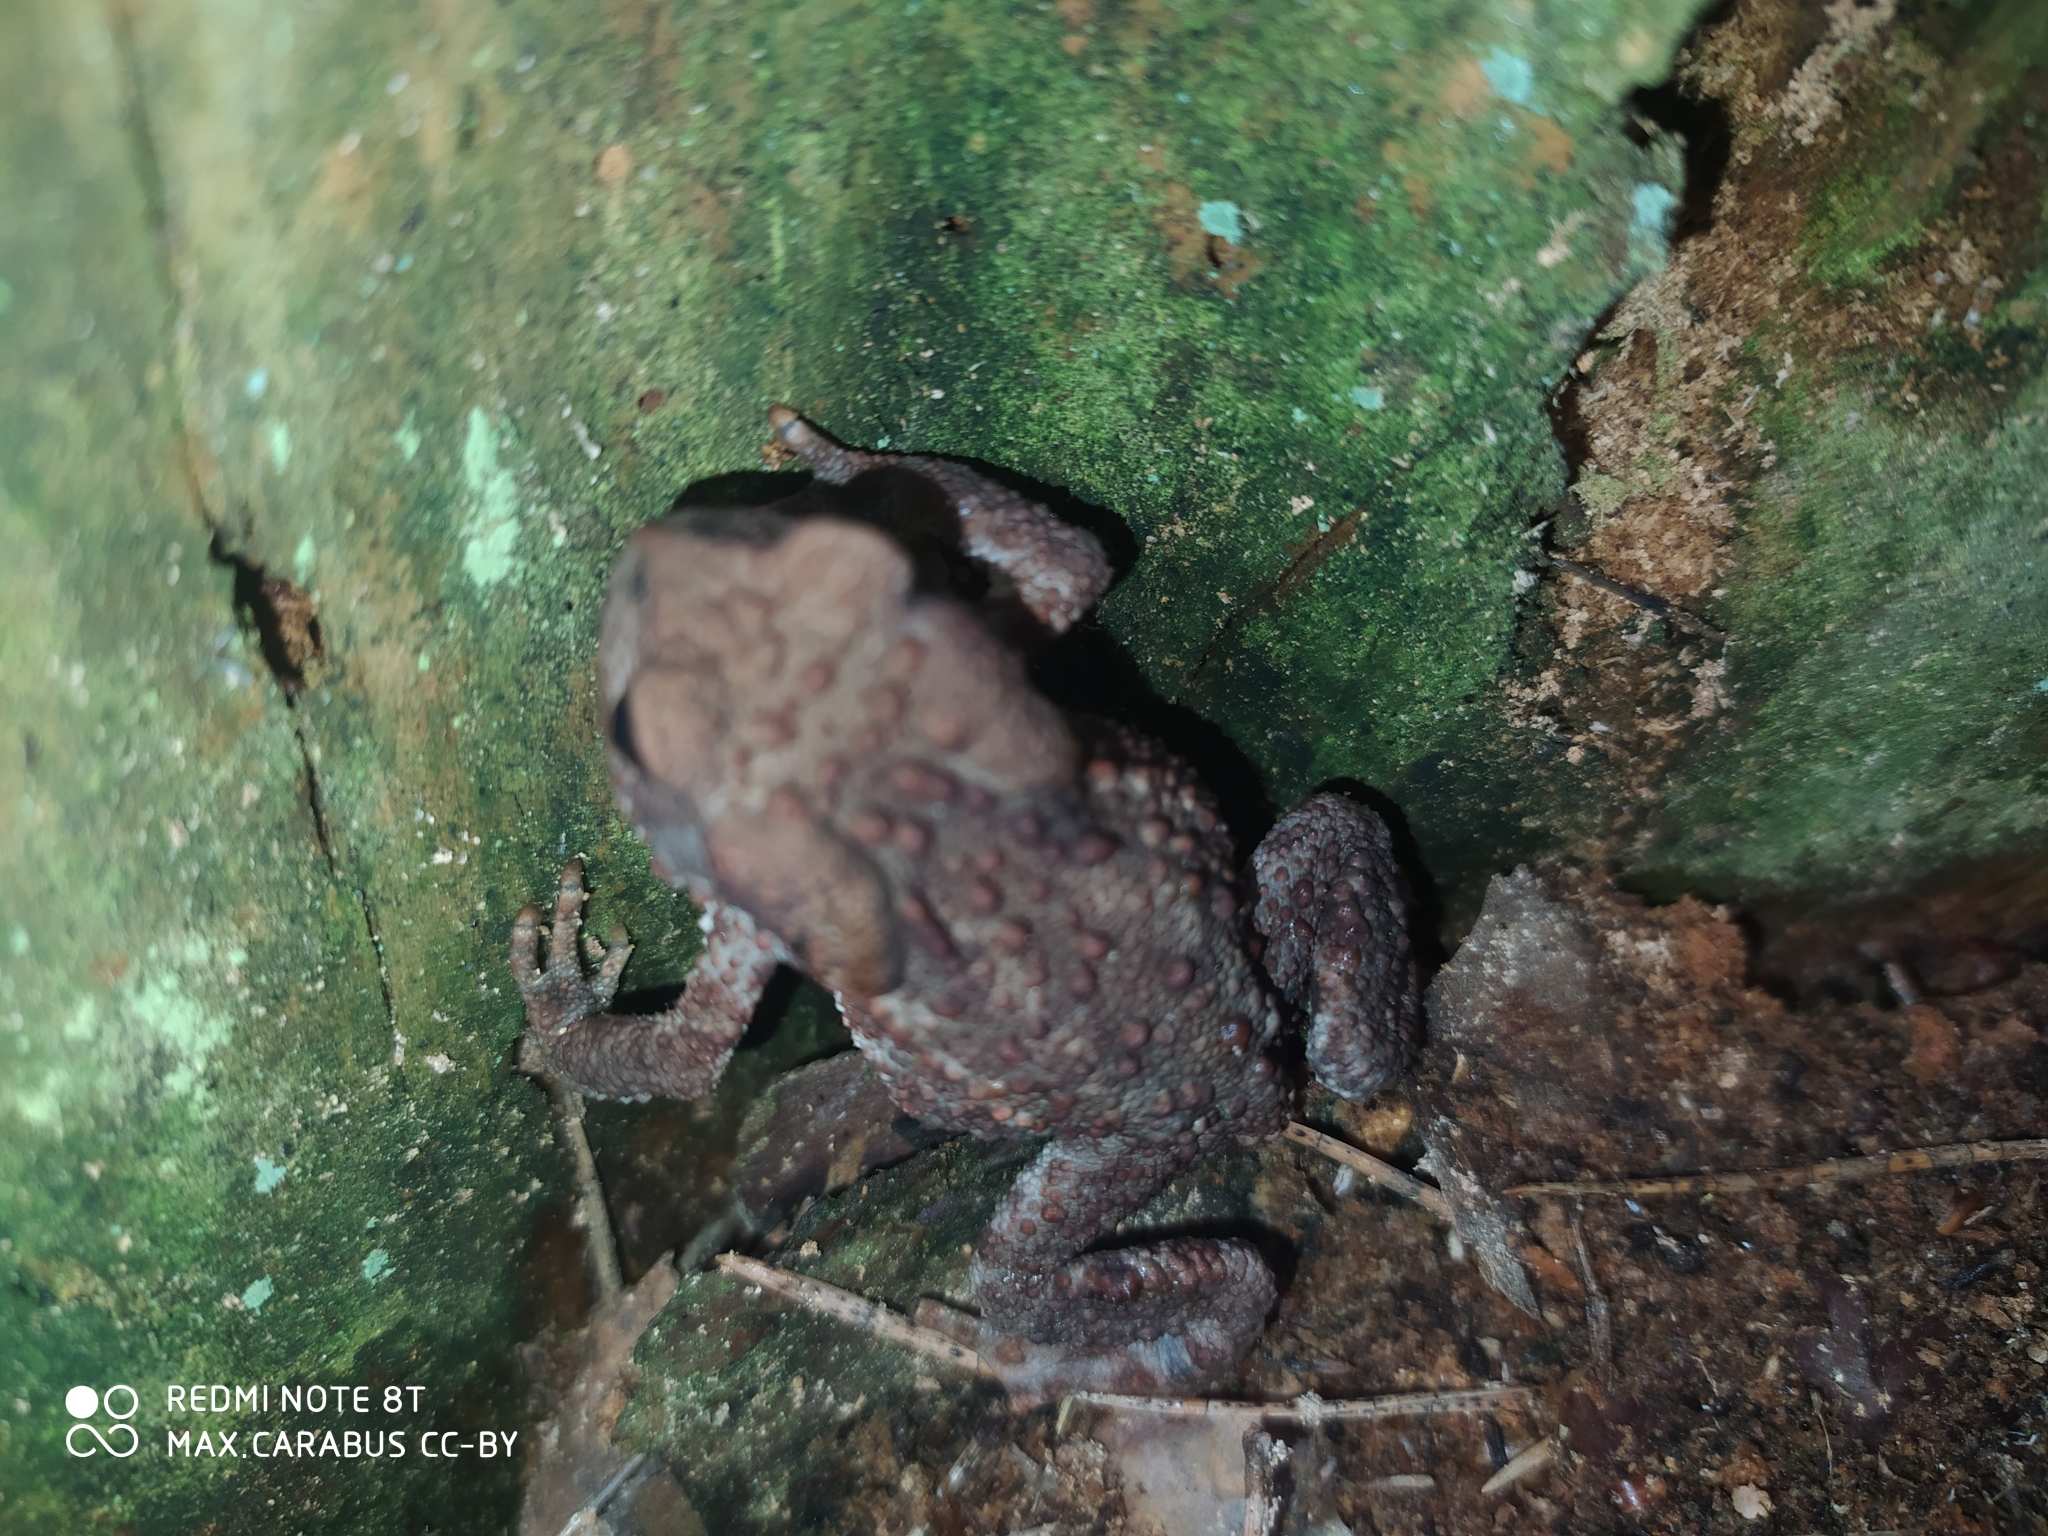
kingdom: Animalia
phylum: Chordata
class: Amphibia
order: Anura
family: Bufonidae
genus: Bufo
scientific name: Bufo bufo
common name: Common toad
